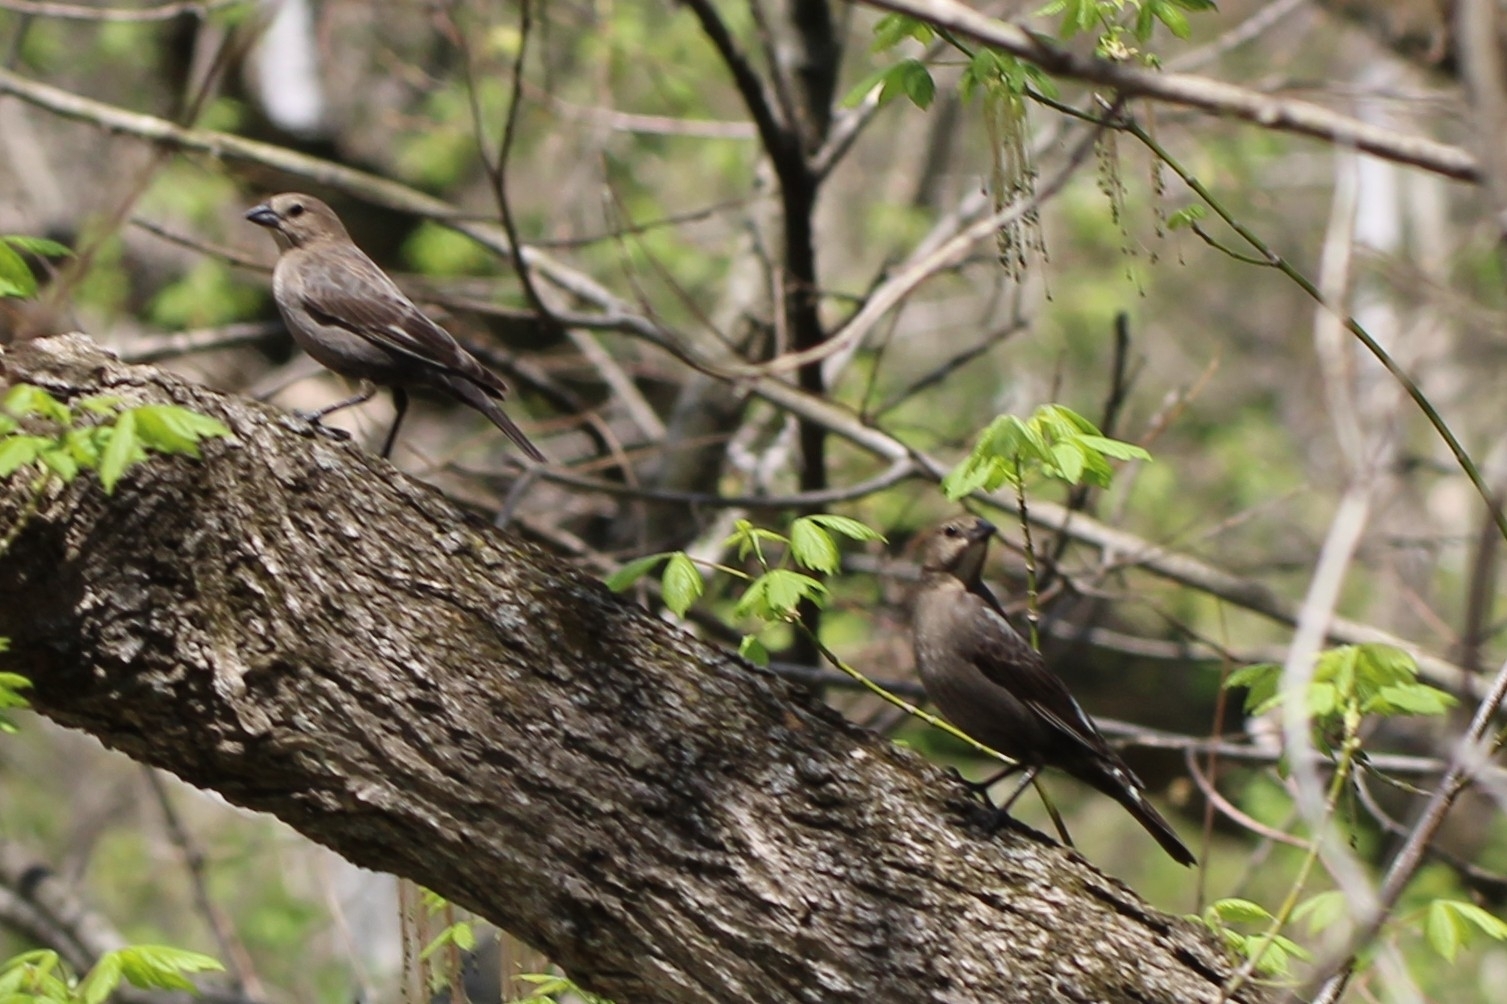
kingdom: Animalia
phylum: Chordata
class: Aves
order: Passeriformes
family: Icteridae
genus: Molothrus
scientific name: Molothrus ater
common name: Brown-headed cowbird
